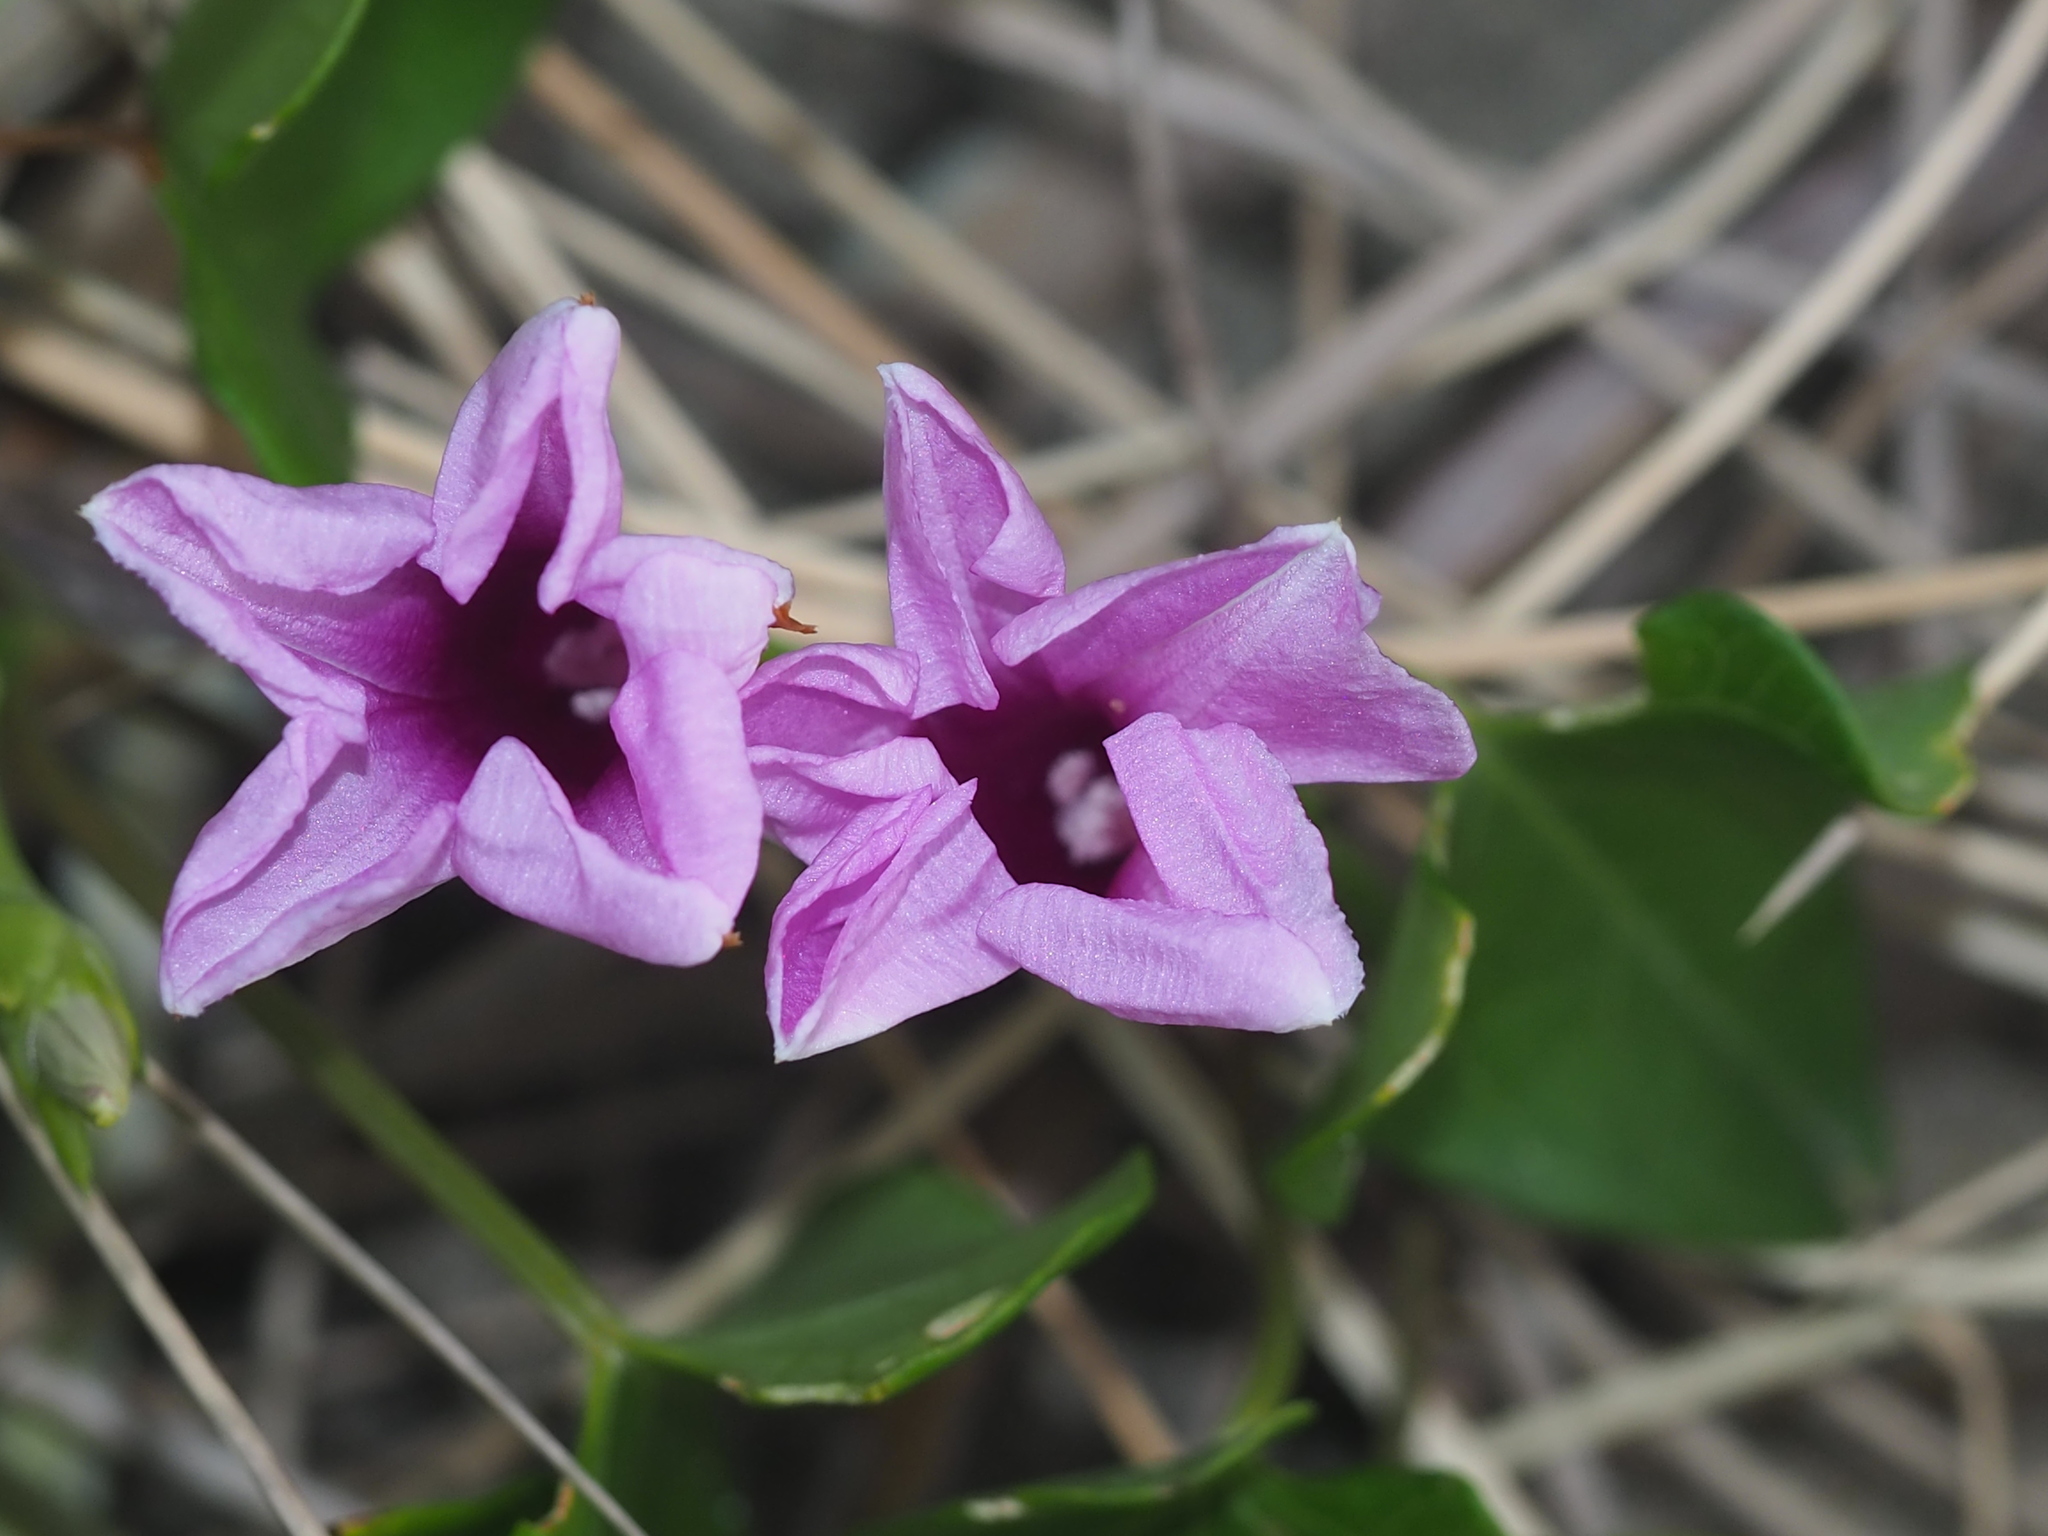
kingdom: Plantae
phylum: Tracheophyta
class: Magnoliopsida
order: Solanales
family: Convolvulaceae
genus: Ipomoea
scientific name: Ipomoea littoralis
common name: Coastal morning glory
